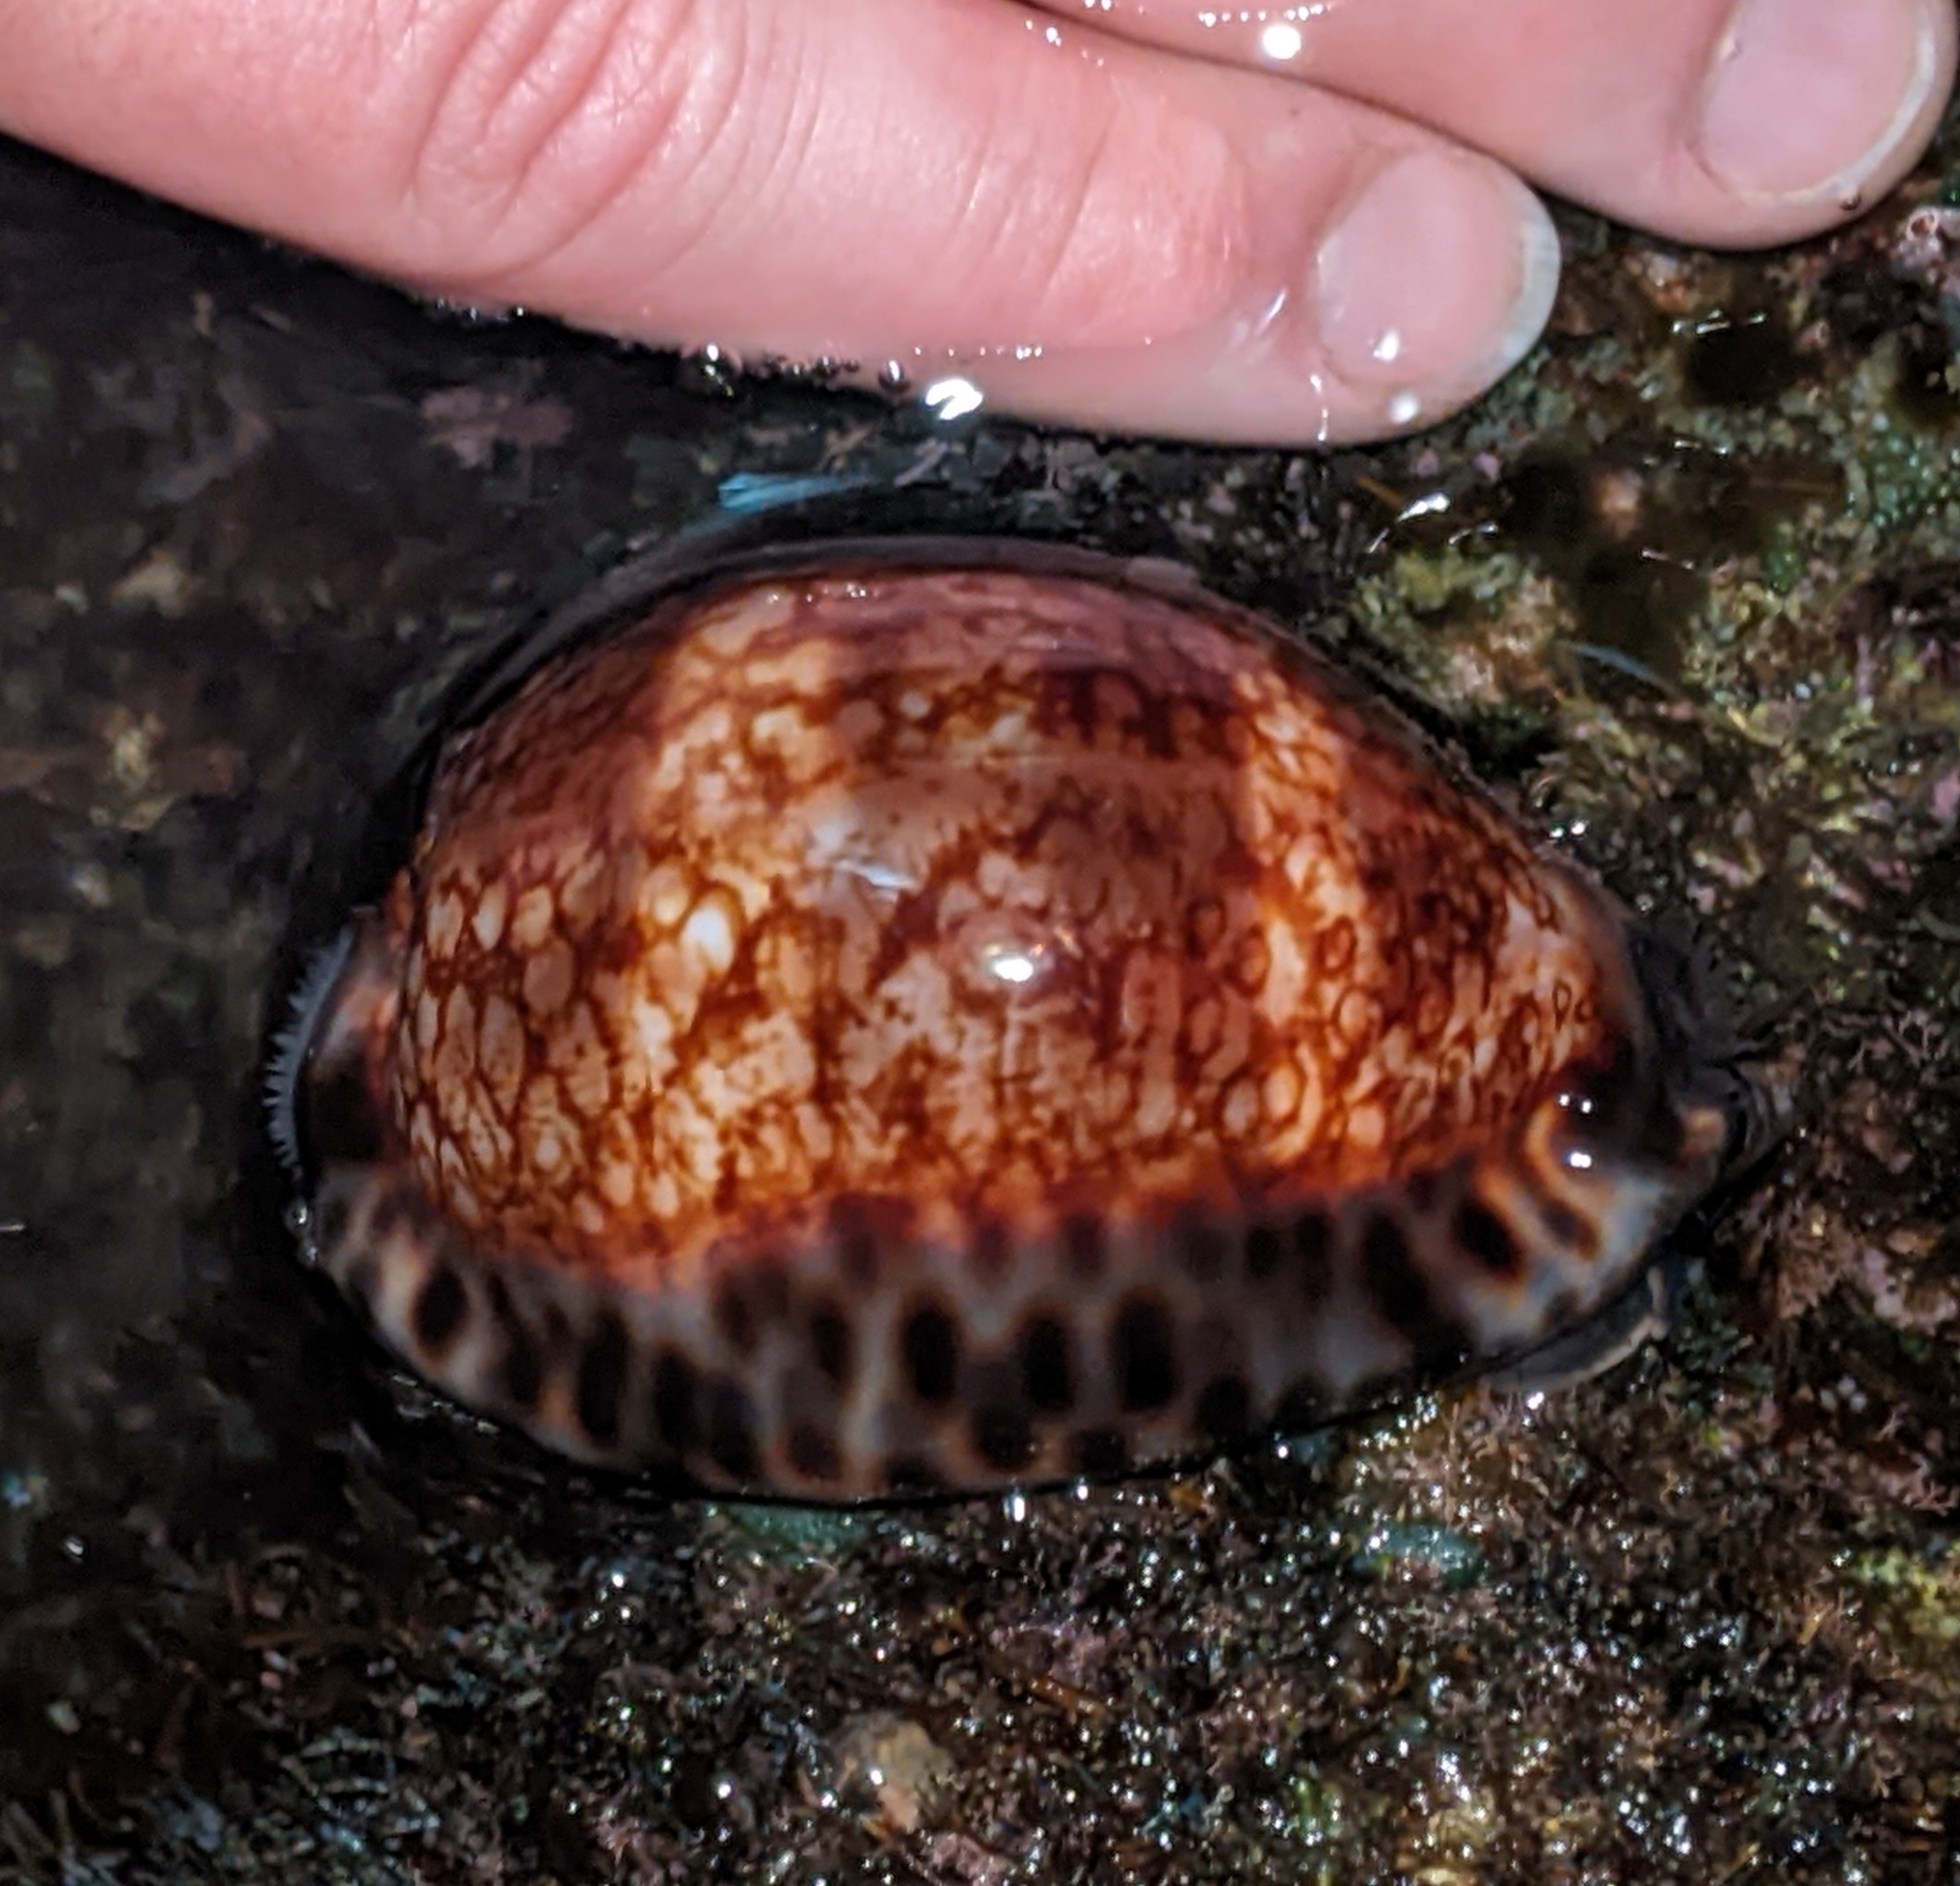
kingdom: Animalia
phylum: Mollusca
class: Gastropoda
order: Littorinimorpha
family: Cypraeidae
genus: Mauritia
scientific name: Mauritia maculifera
